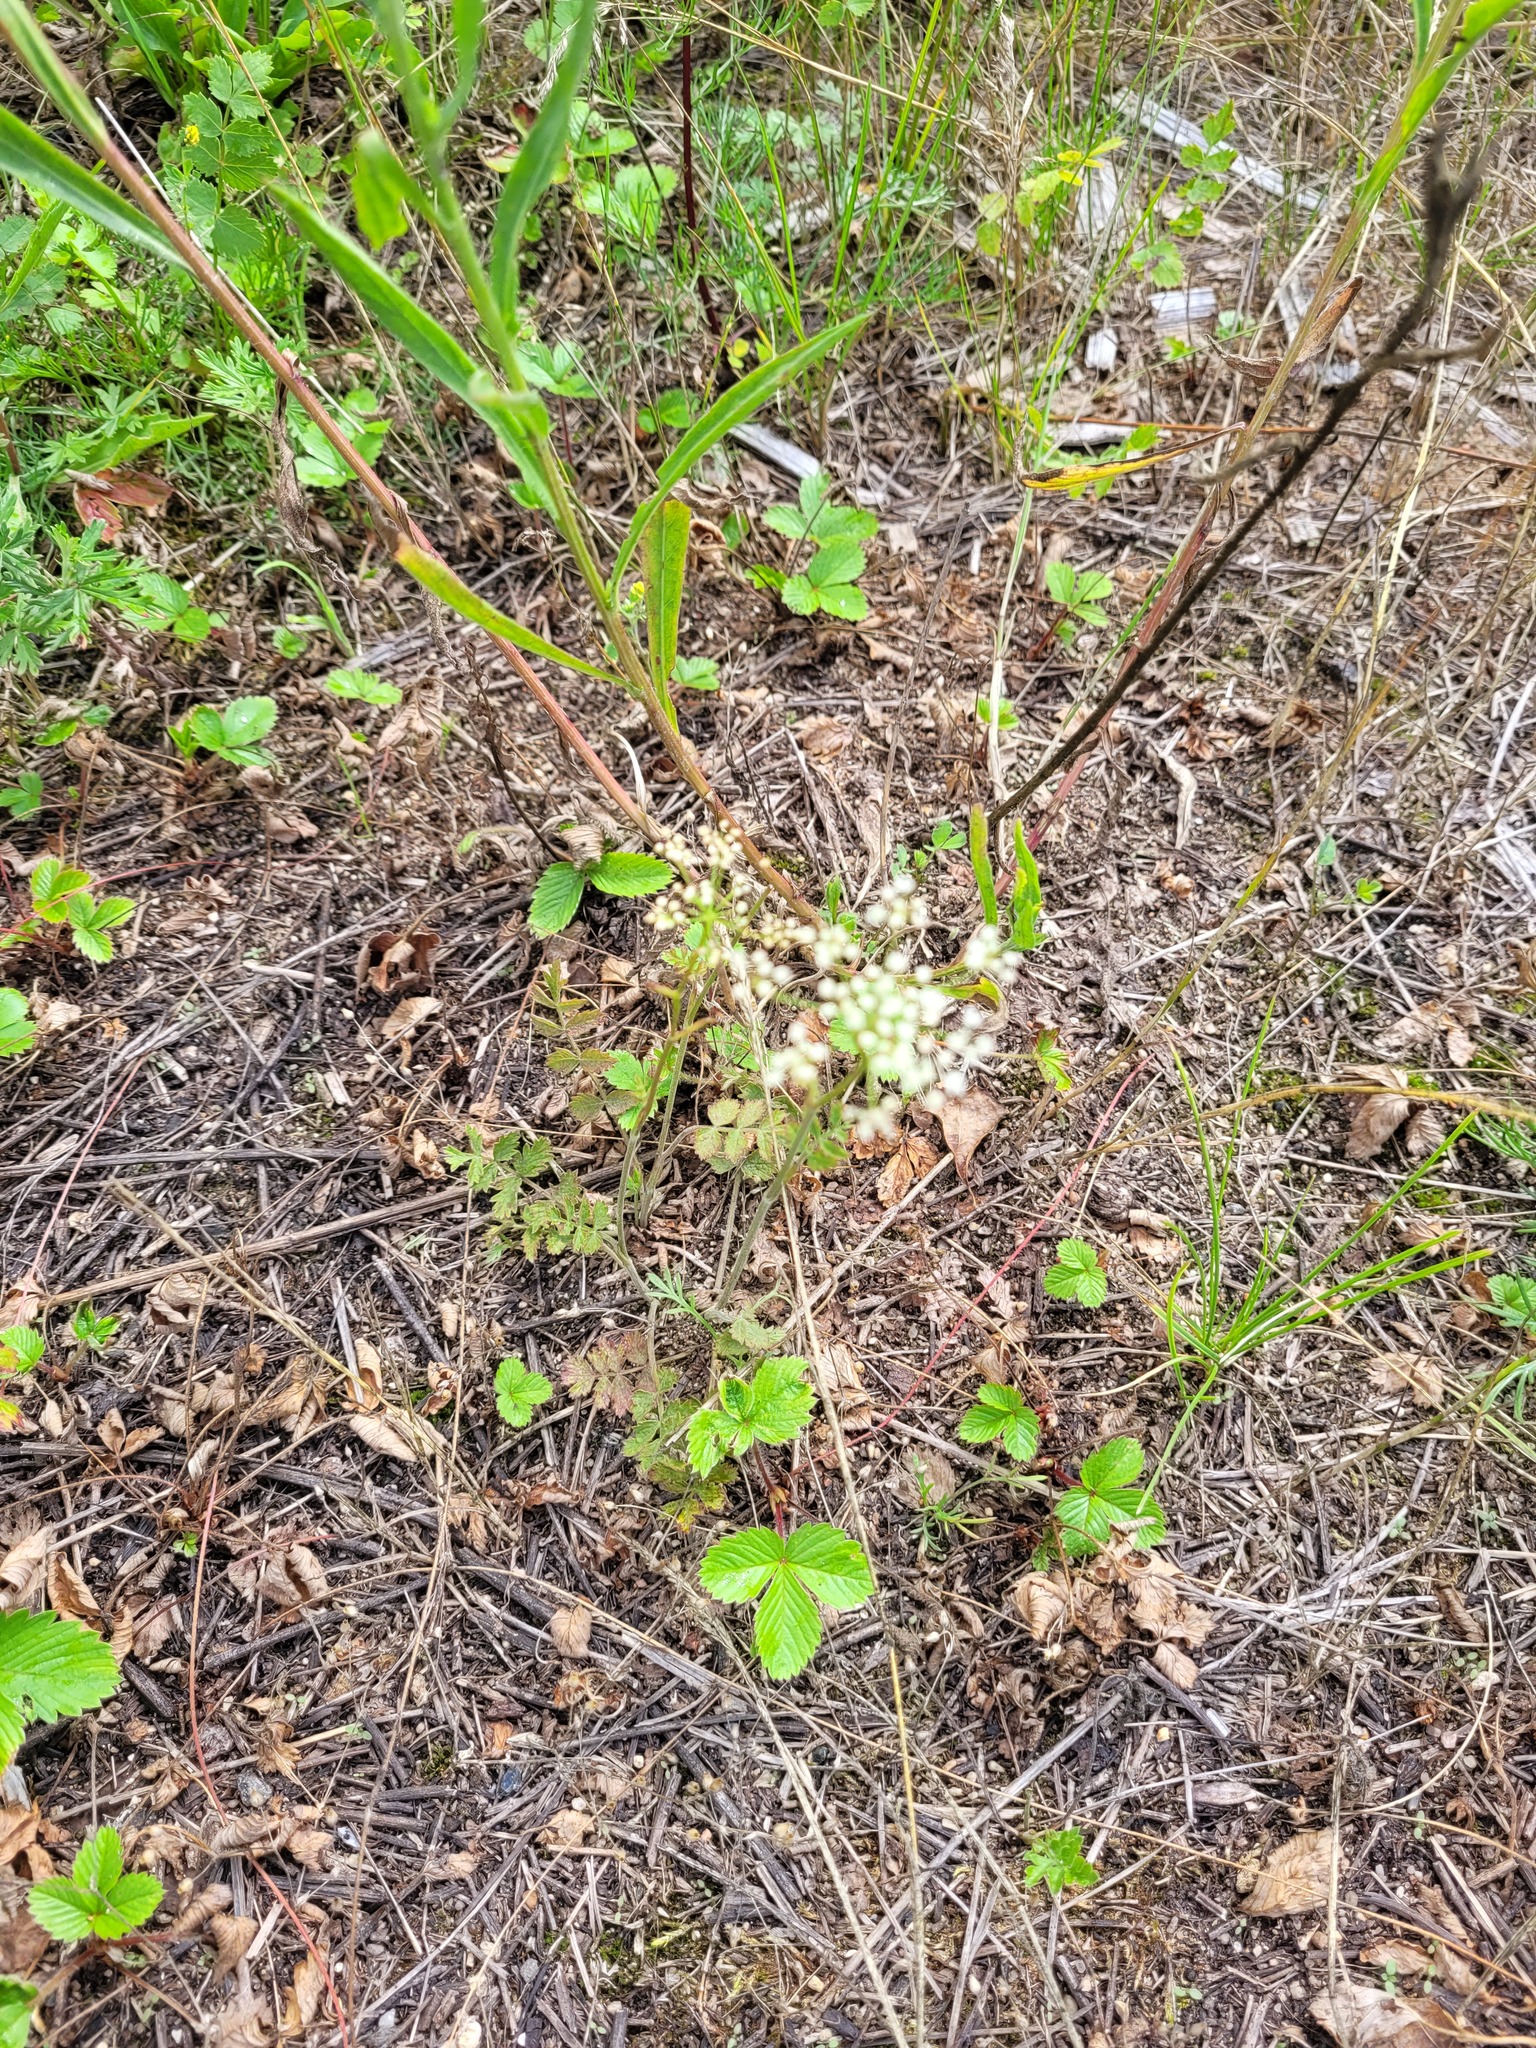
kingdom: Plantae
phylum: Tracheophyta
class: Magnoliopsida
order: Apiales
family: Apiaceae
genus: Pimpinella
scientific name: Pimpinella saxifraga
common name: Burnet-saxifrage
